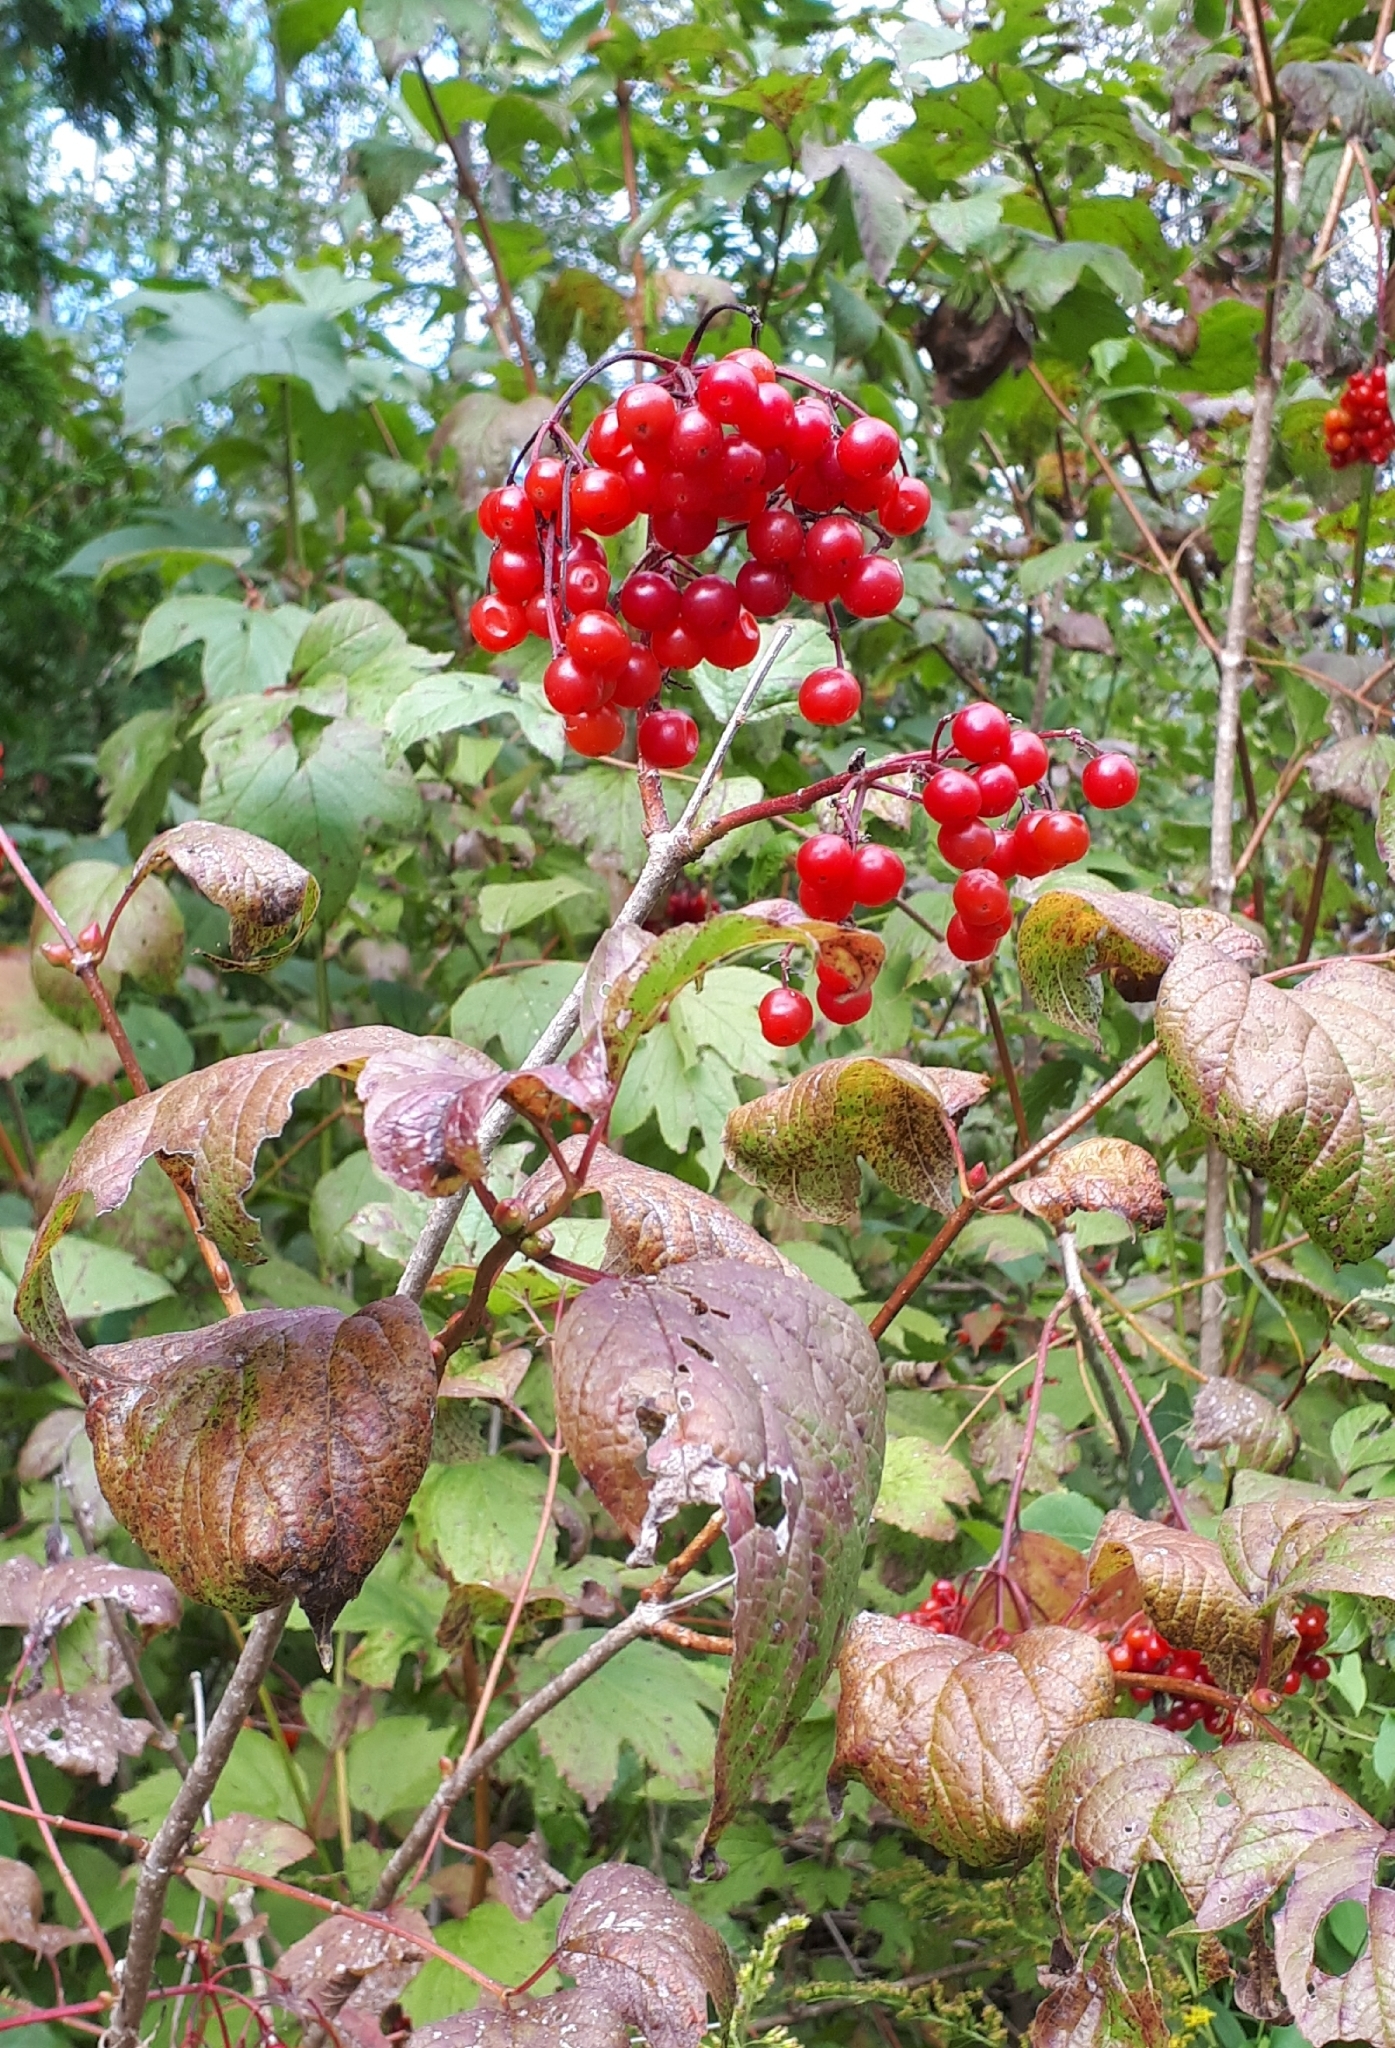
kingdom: Plantae
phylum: Tracheophyta
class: Magnoliopsida
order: Dipsacales
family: Viburnaceae
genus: Viburnum
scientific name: Viburnum opulus
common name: Guelder-rose
